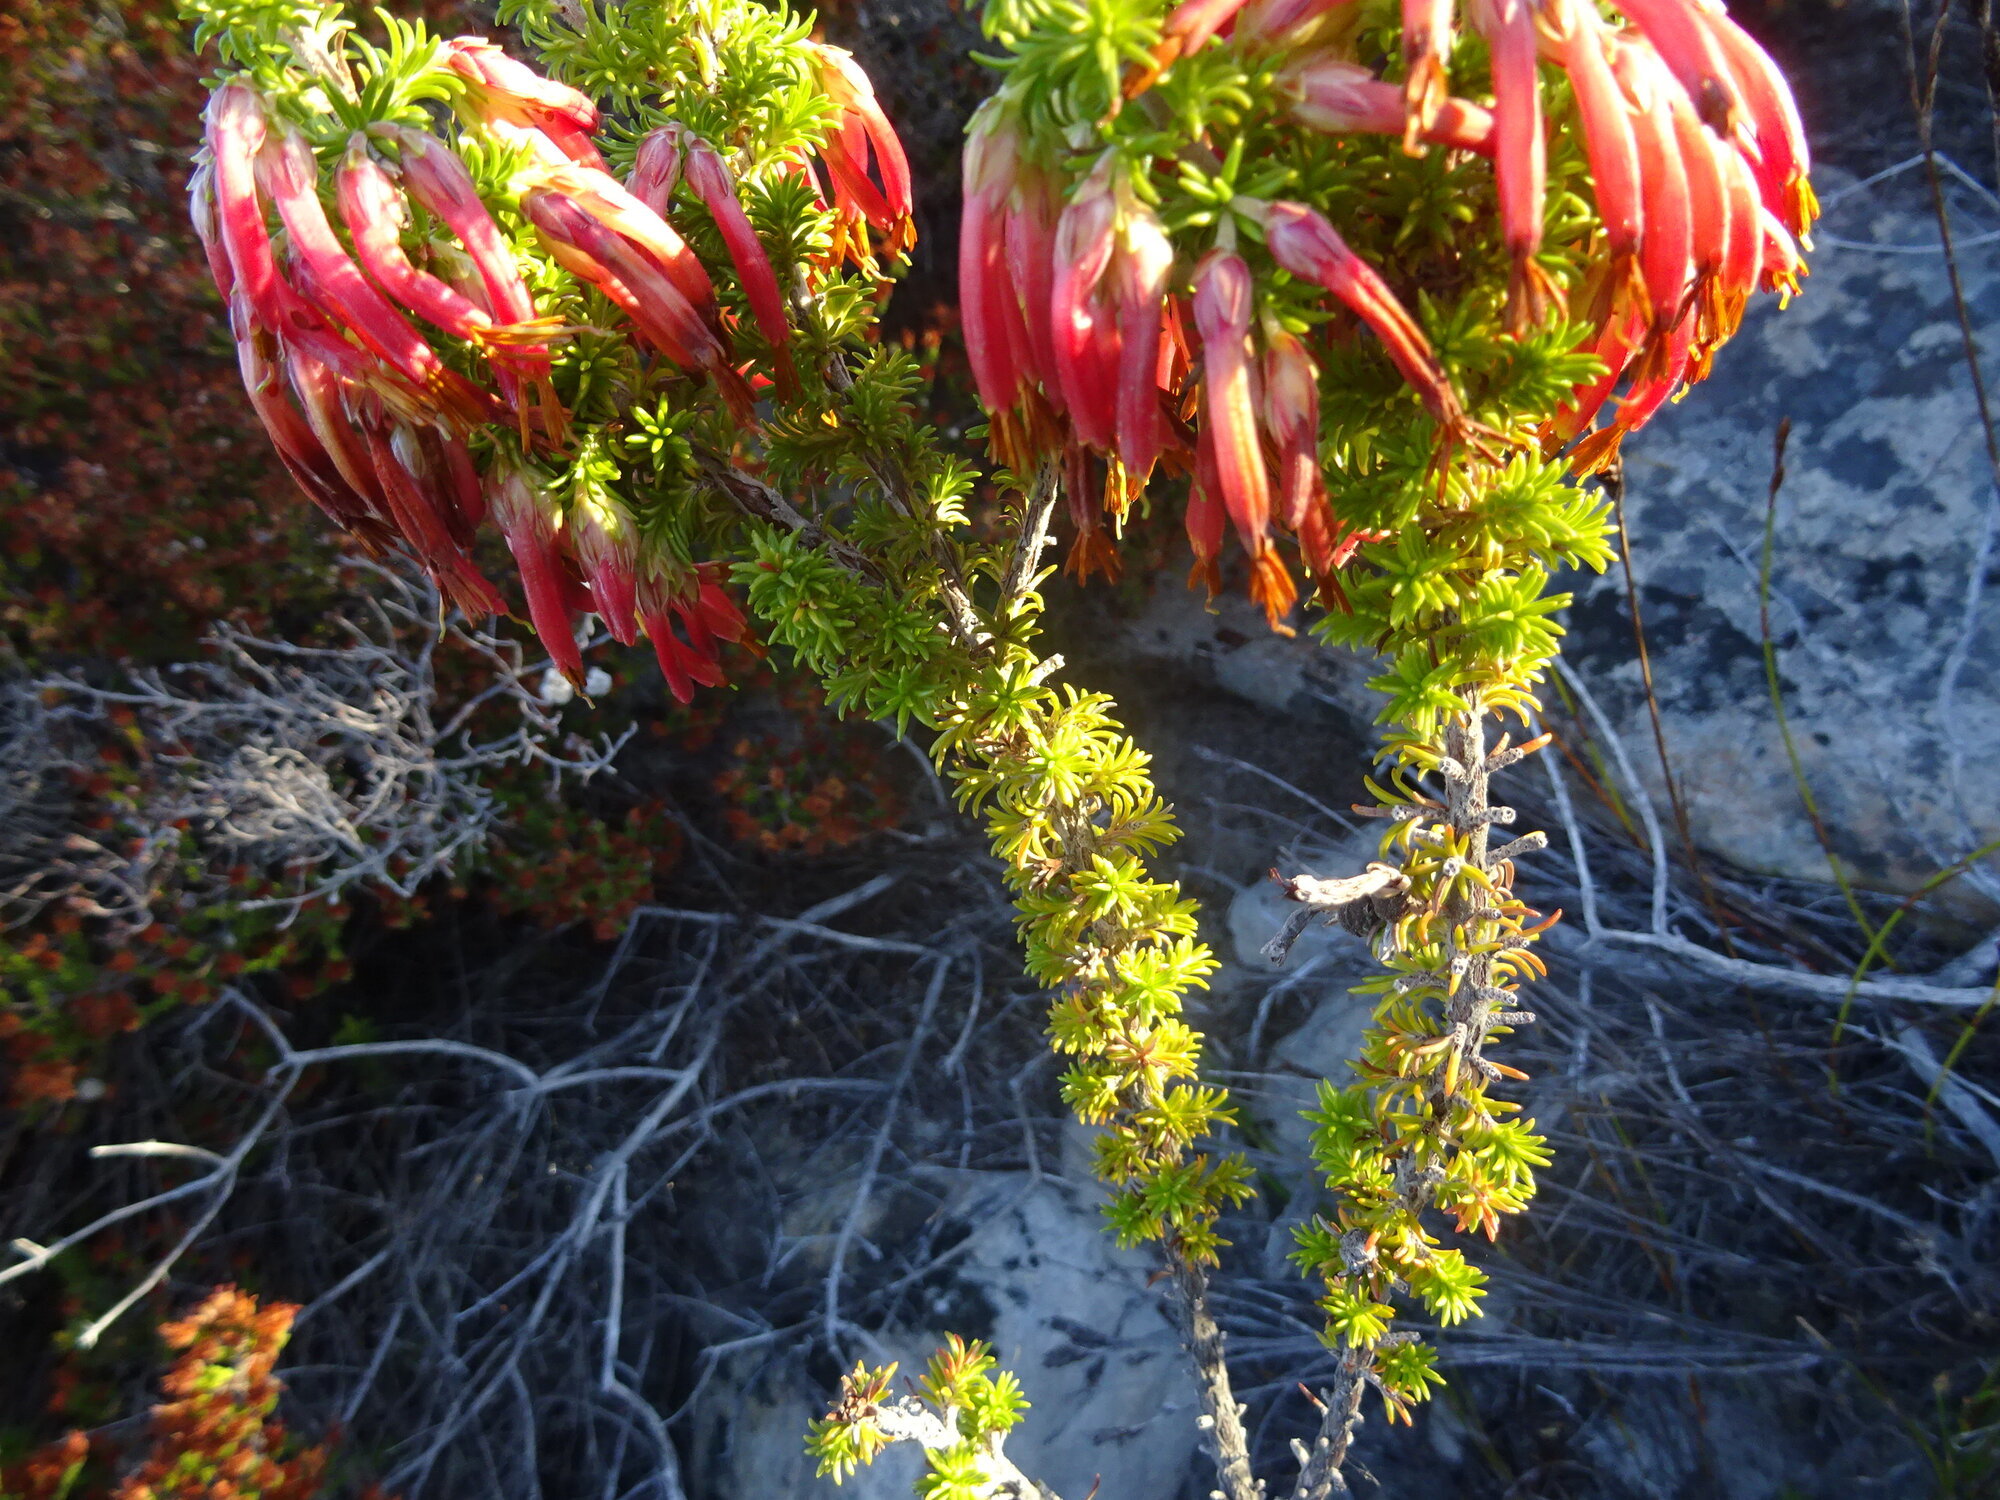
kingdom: Plantae
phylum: Tracheophyta
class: Magnoliopsida
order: Ericales
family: Ericaceae
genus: Erica
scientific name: Erica coccinea
